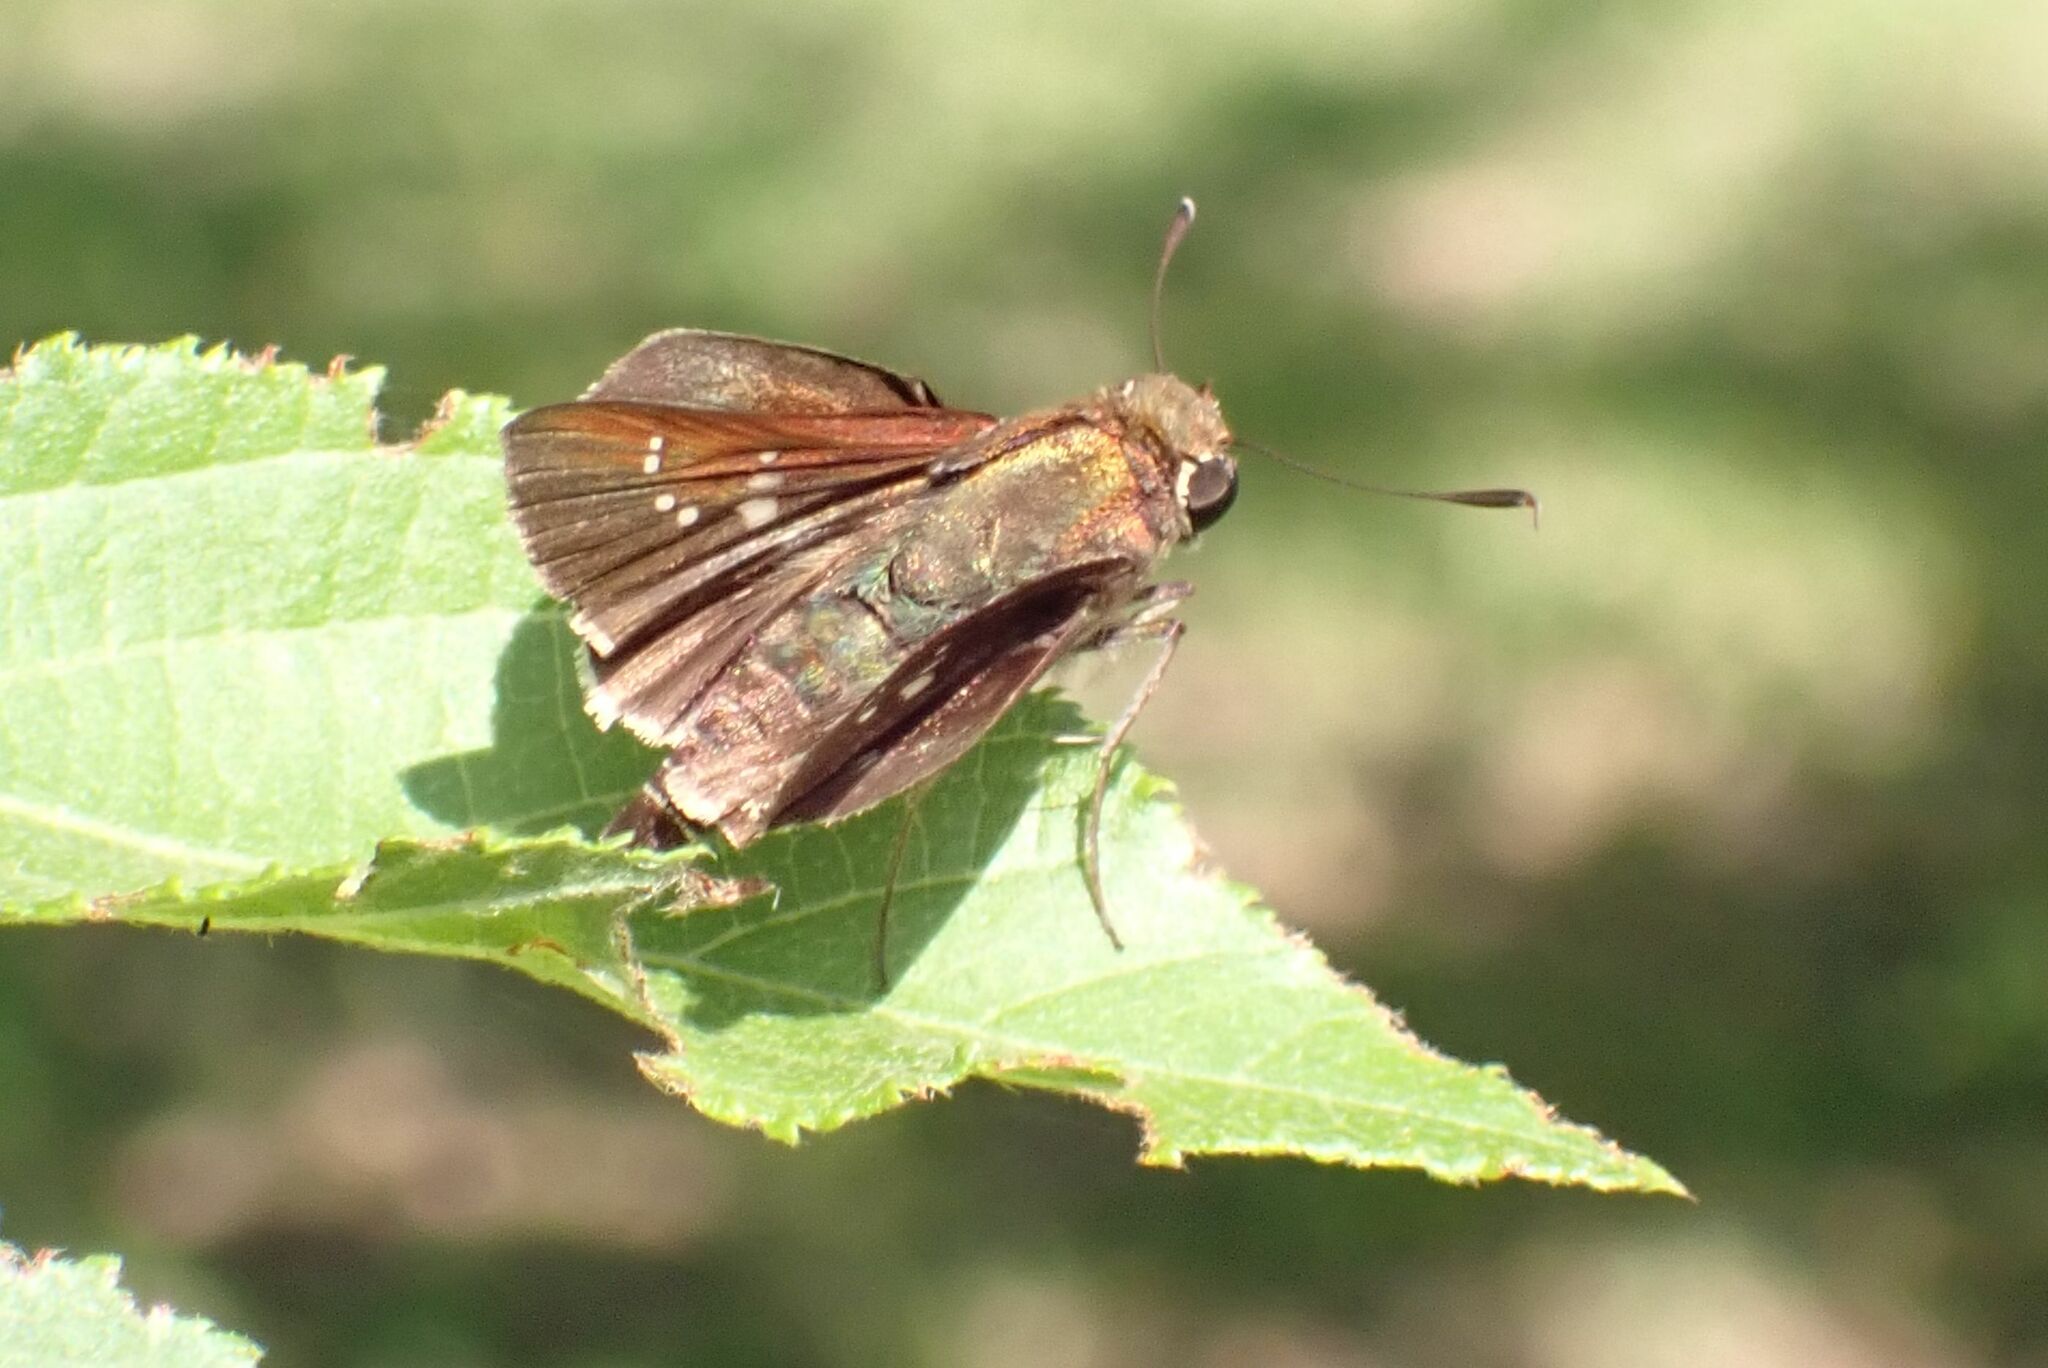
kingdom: Animalia
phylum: Arthropoda
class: Insecta
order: Lepidoptera
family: Hesperiidae
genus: Platylesches
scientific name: Platylesches neba
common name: Flower-girl hopper
